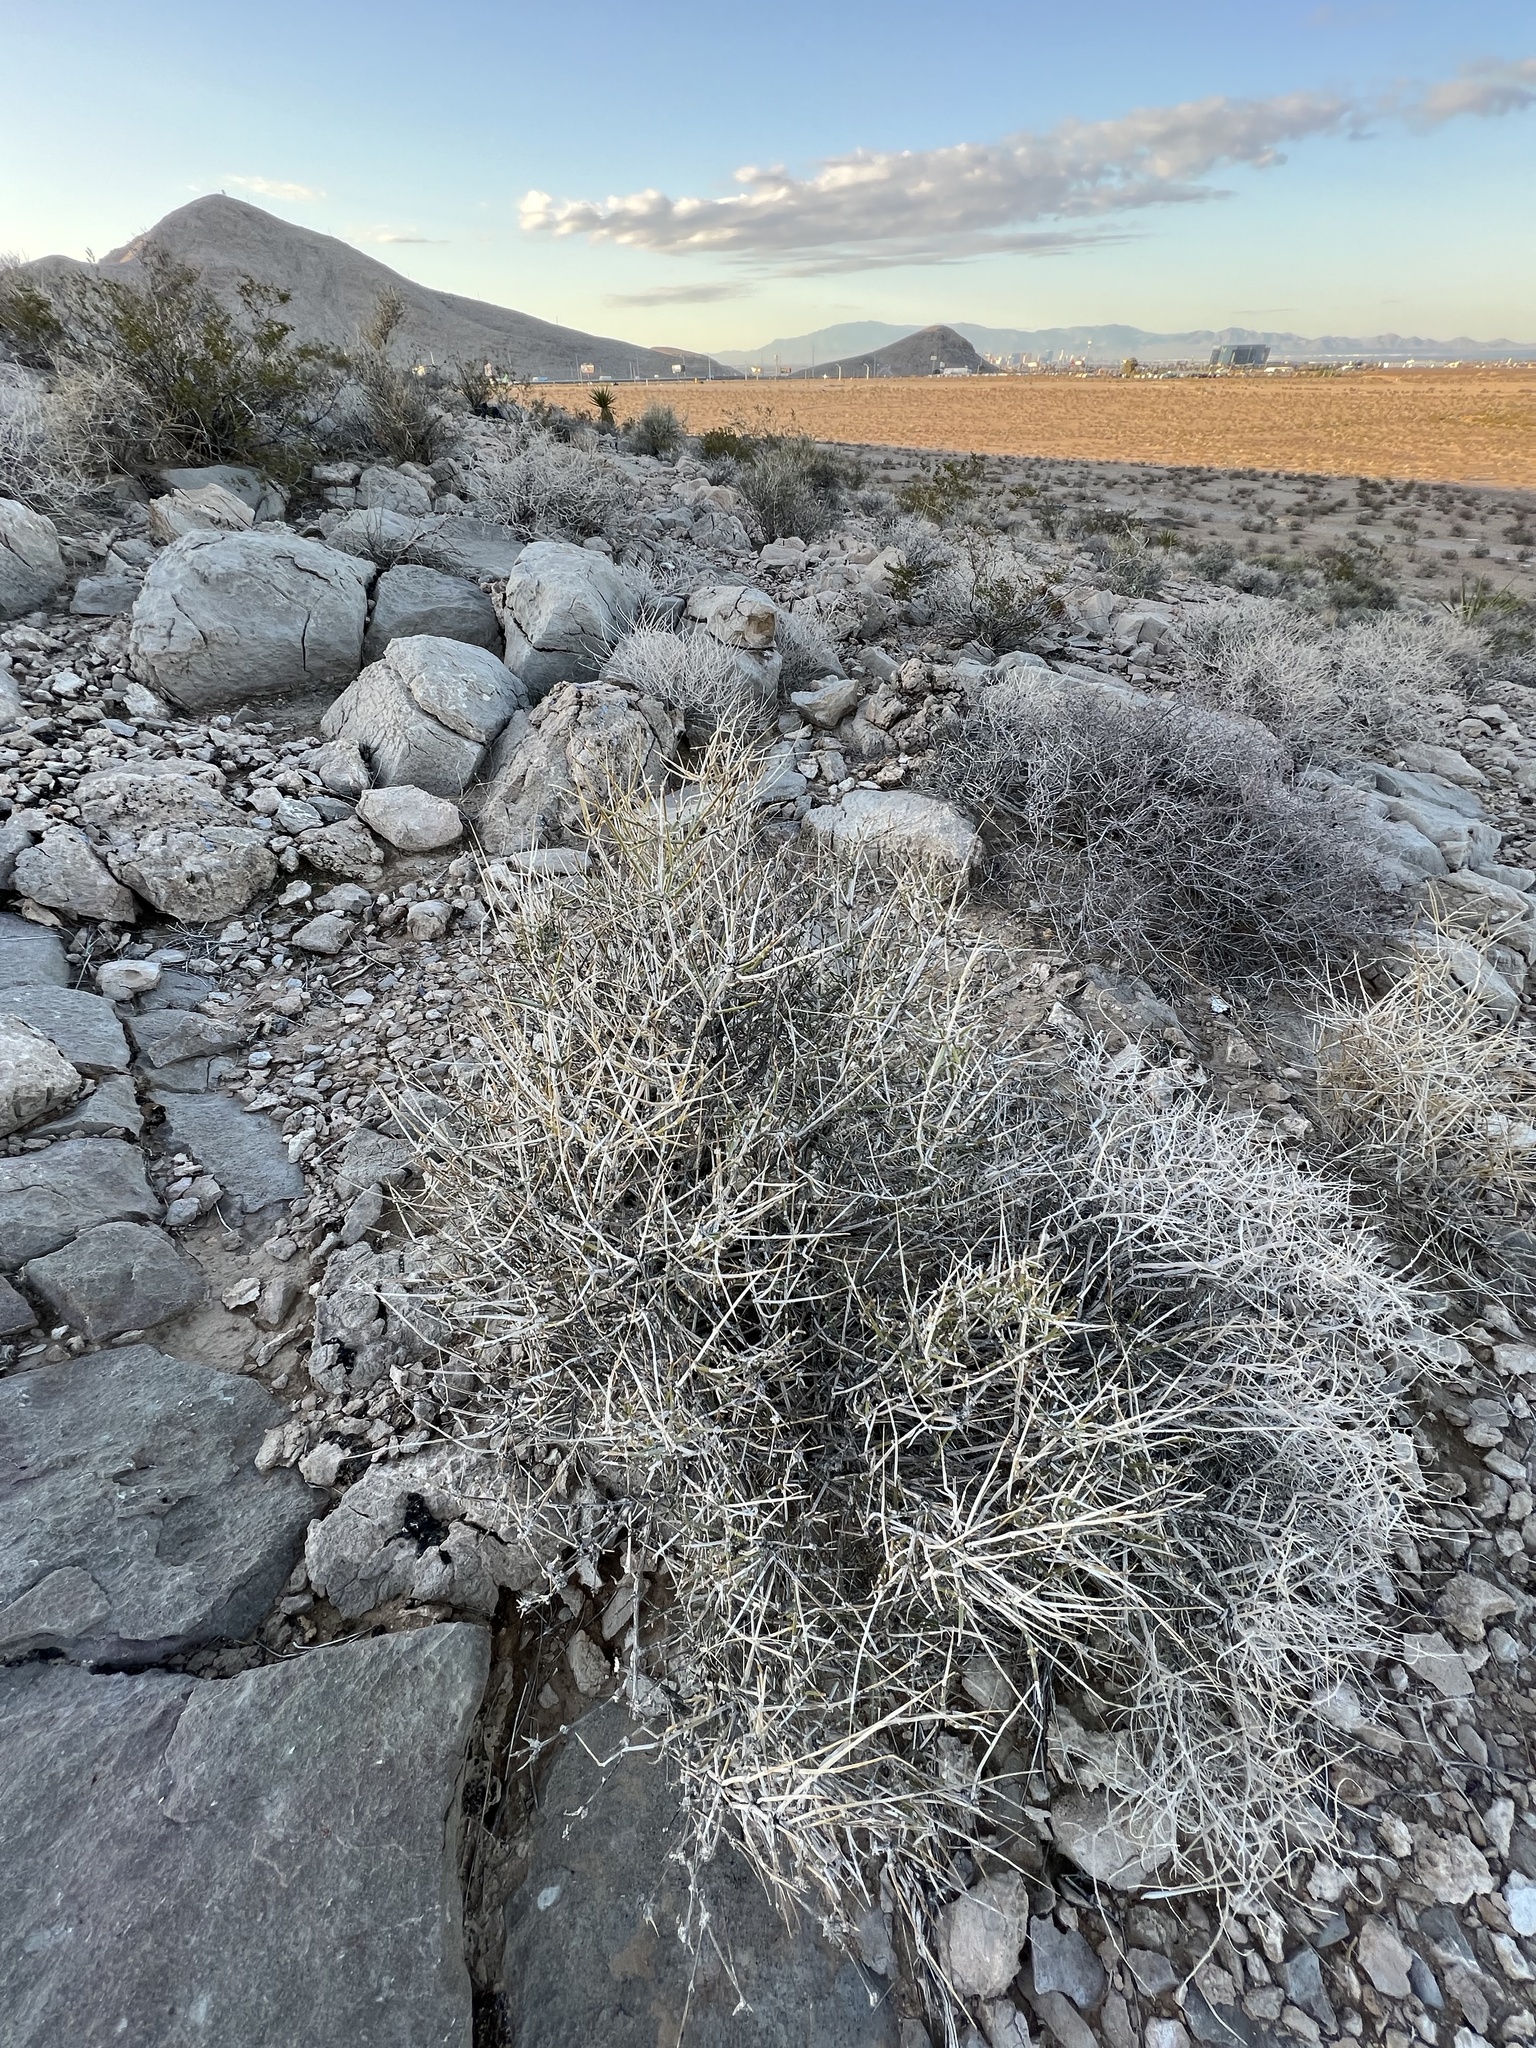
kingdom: Plantae
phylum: Tracheophyta
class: Gnetopsida
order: Ephedrales
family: Ephedraceae
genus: Ephedra
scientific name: Ephedra nevadensis
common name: Gray ephedra
